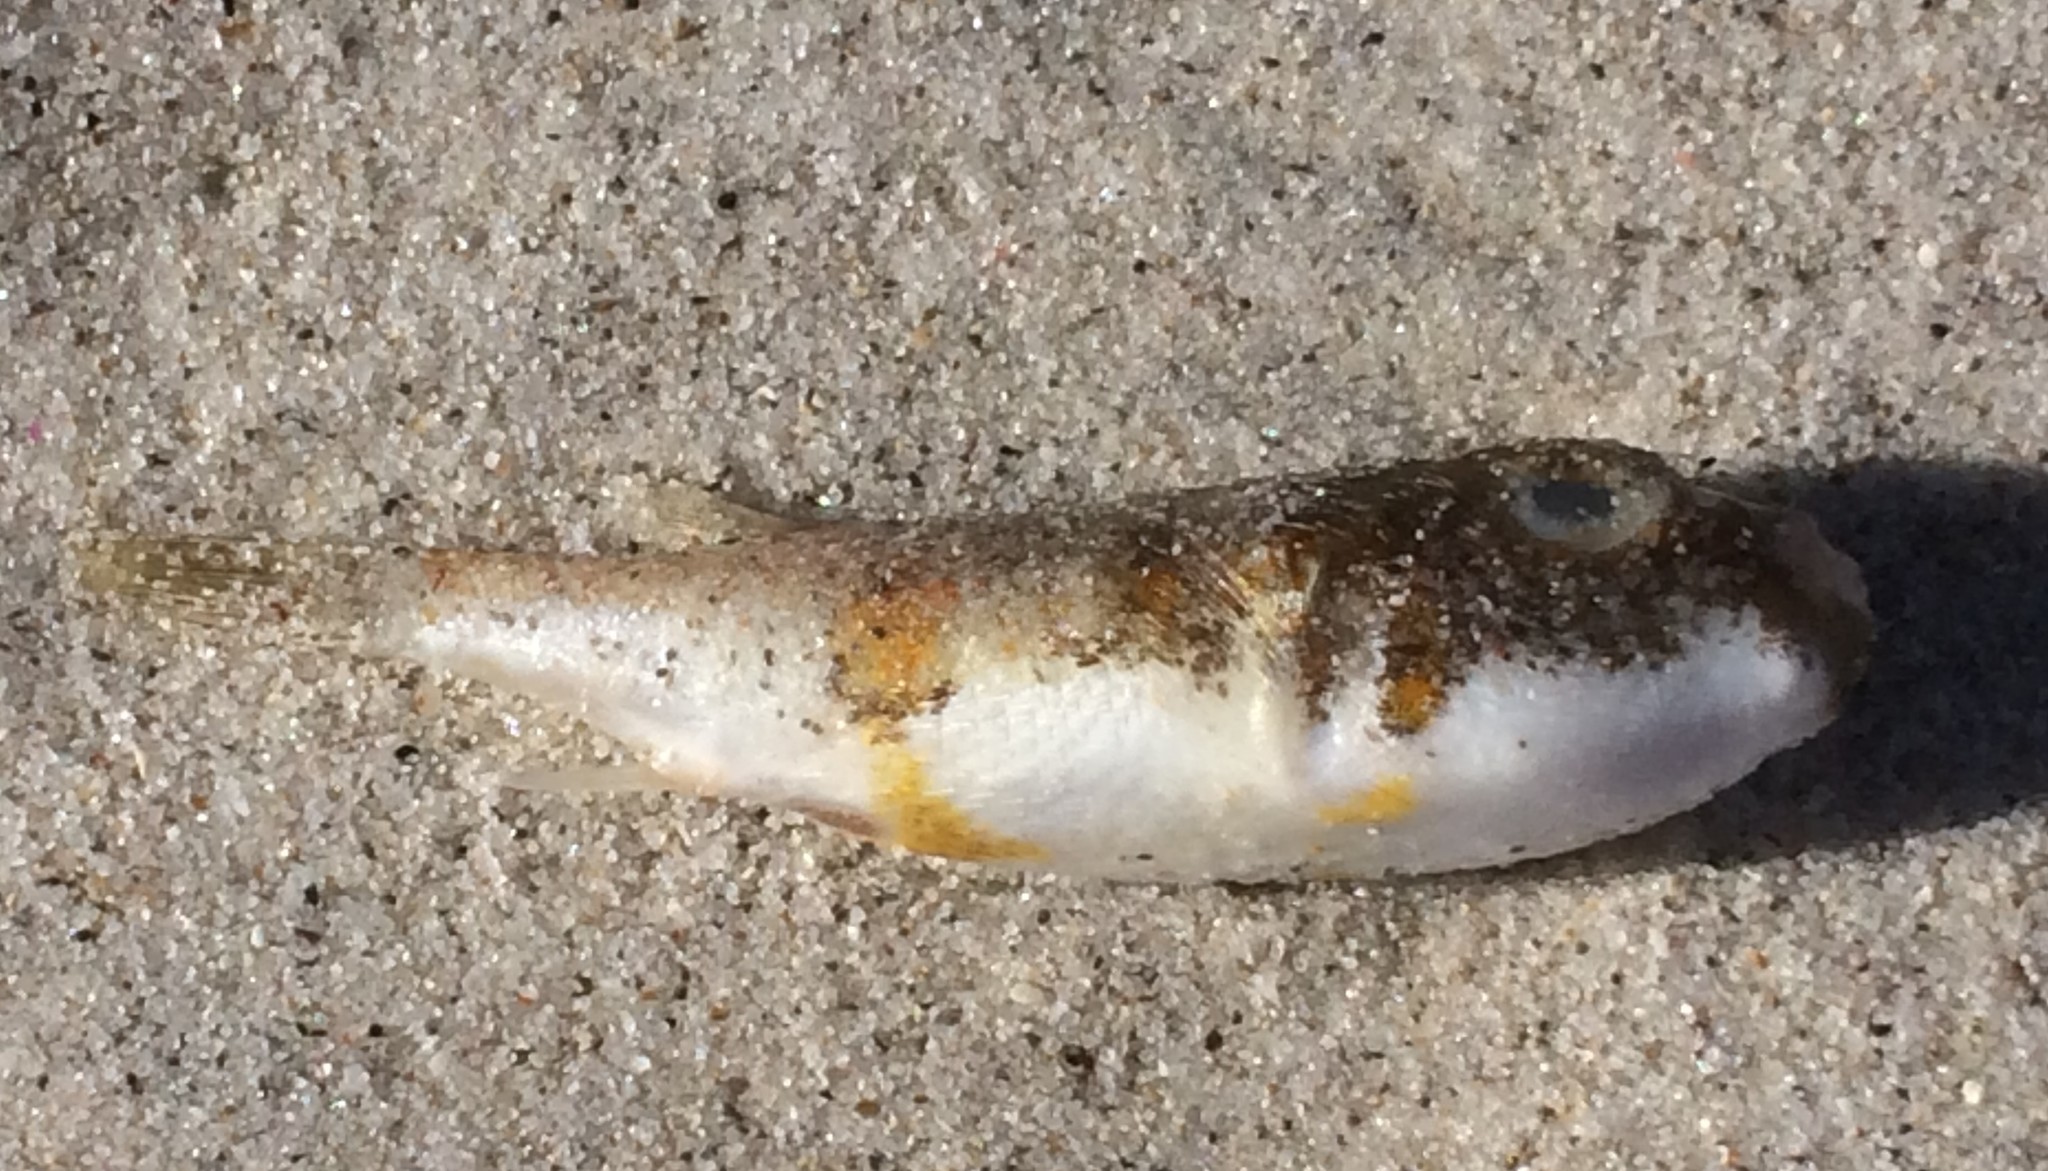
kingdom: Animalia
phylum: Chordata
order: Tetraodontiformes
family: Tetraodontidae
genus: Polyspina
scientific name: Polyspina piosae
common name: Orange-barred pufferfish
